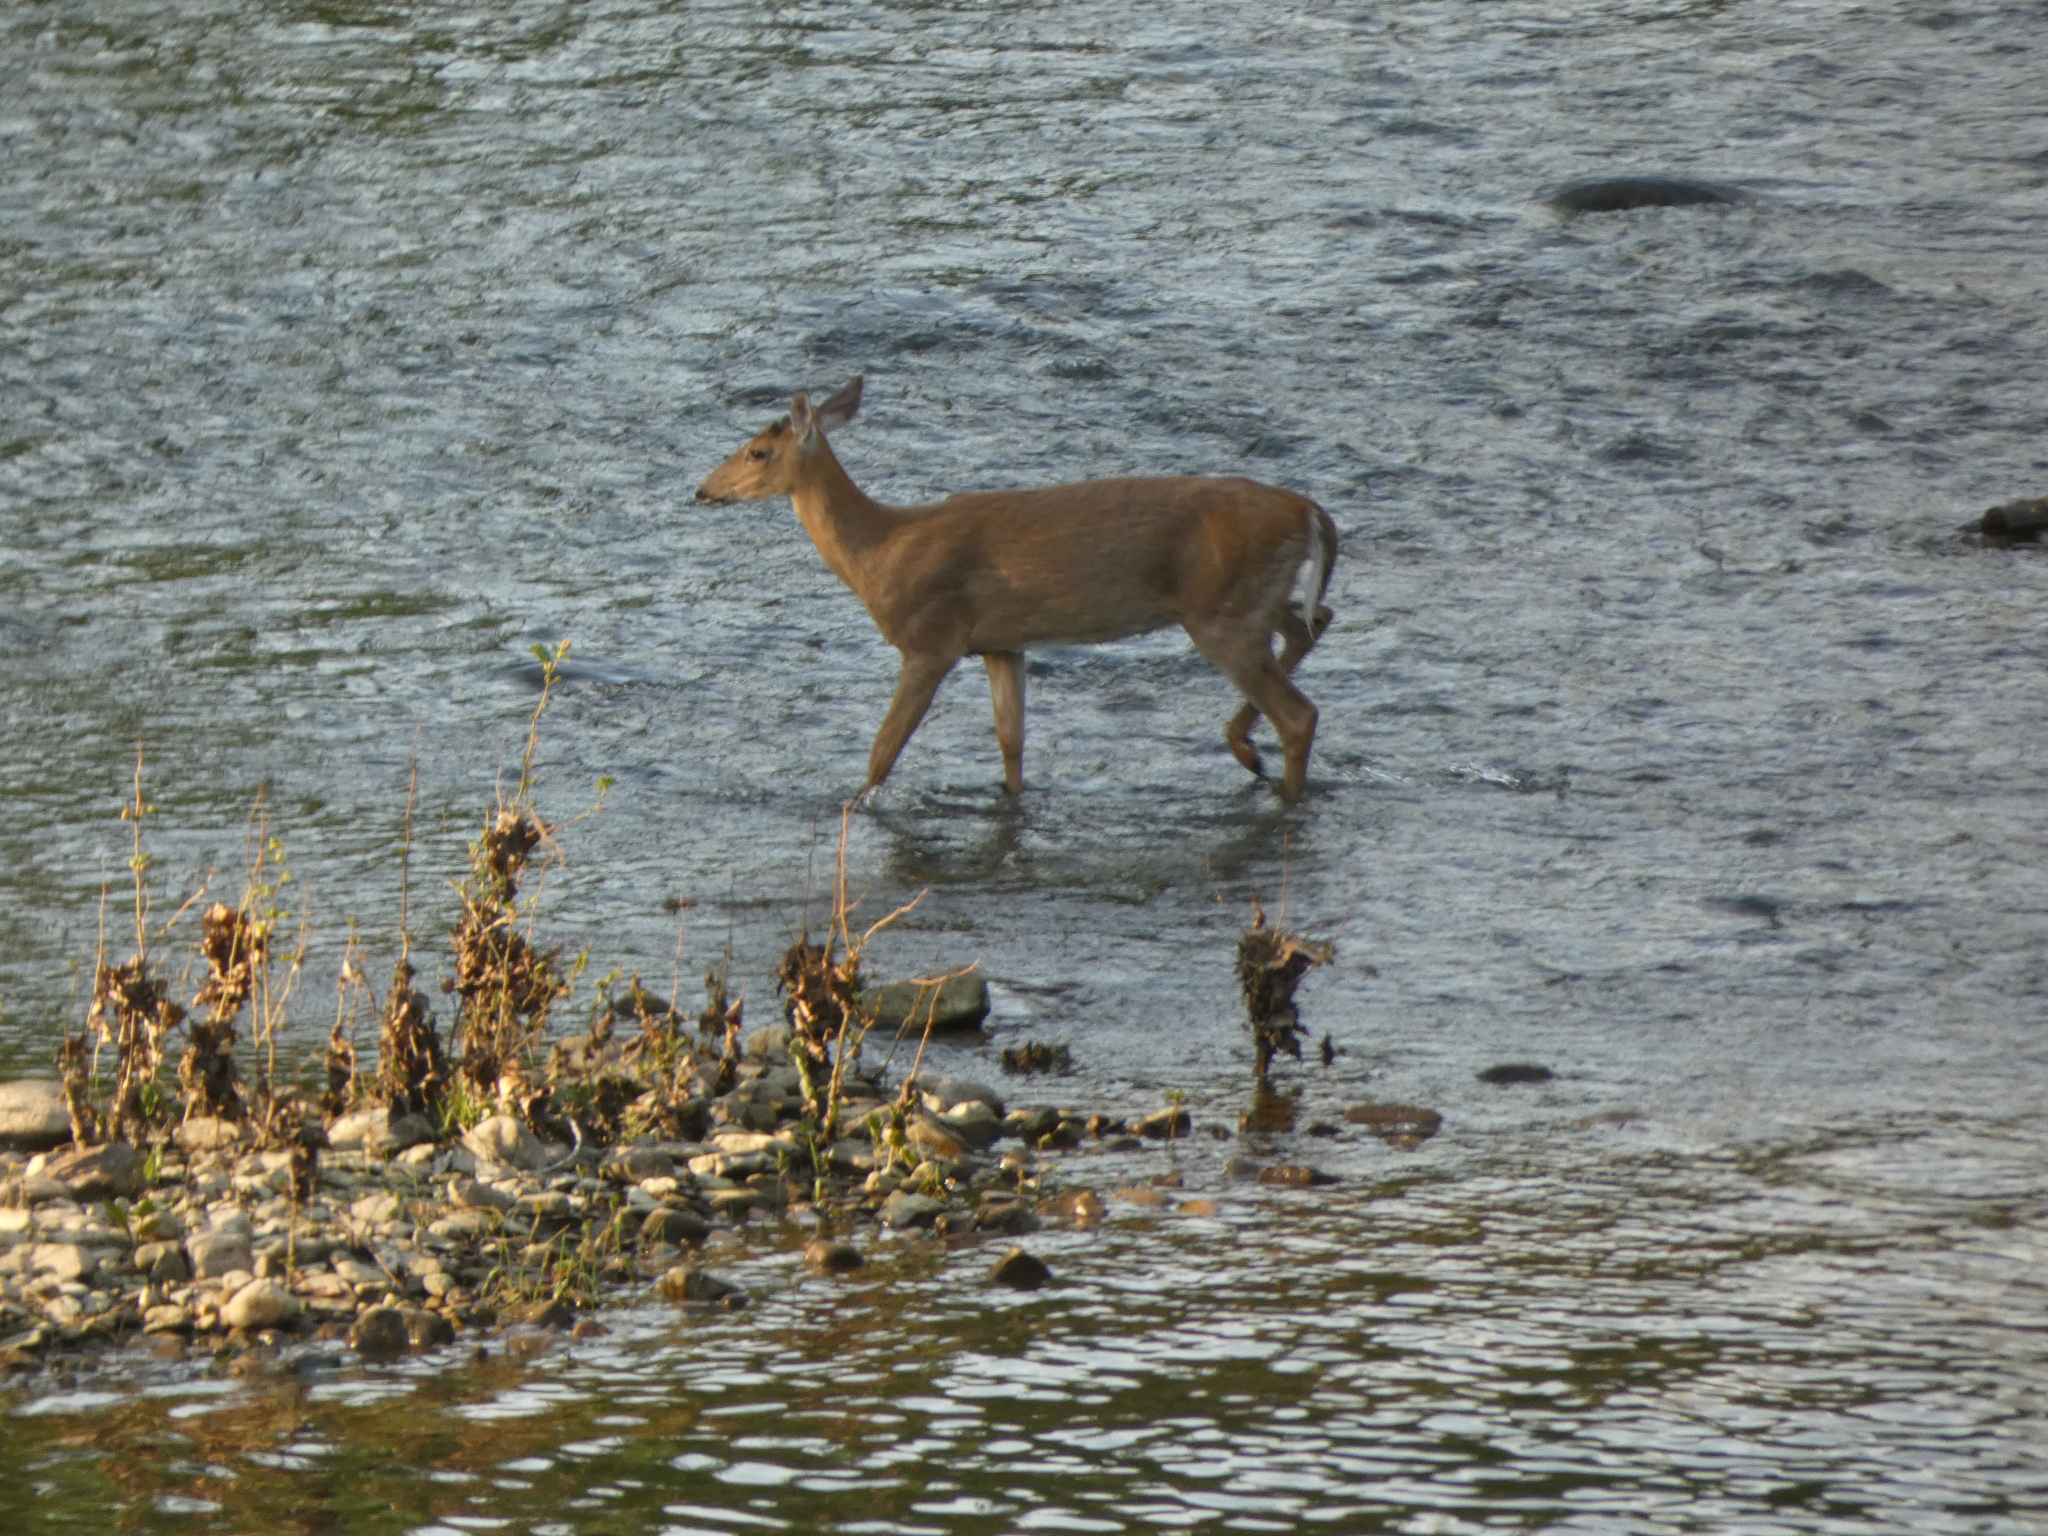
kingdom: Animalia
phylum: Chordata
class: Mammalia
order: Artiodactyla
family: Cervidae
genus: Odocoileus
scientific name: Odocoileus virginianus
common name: White-tailed deer
